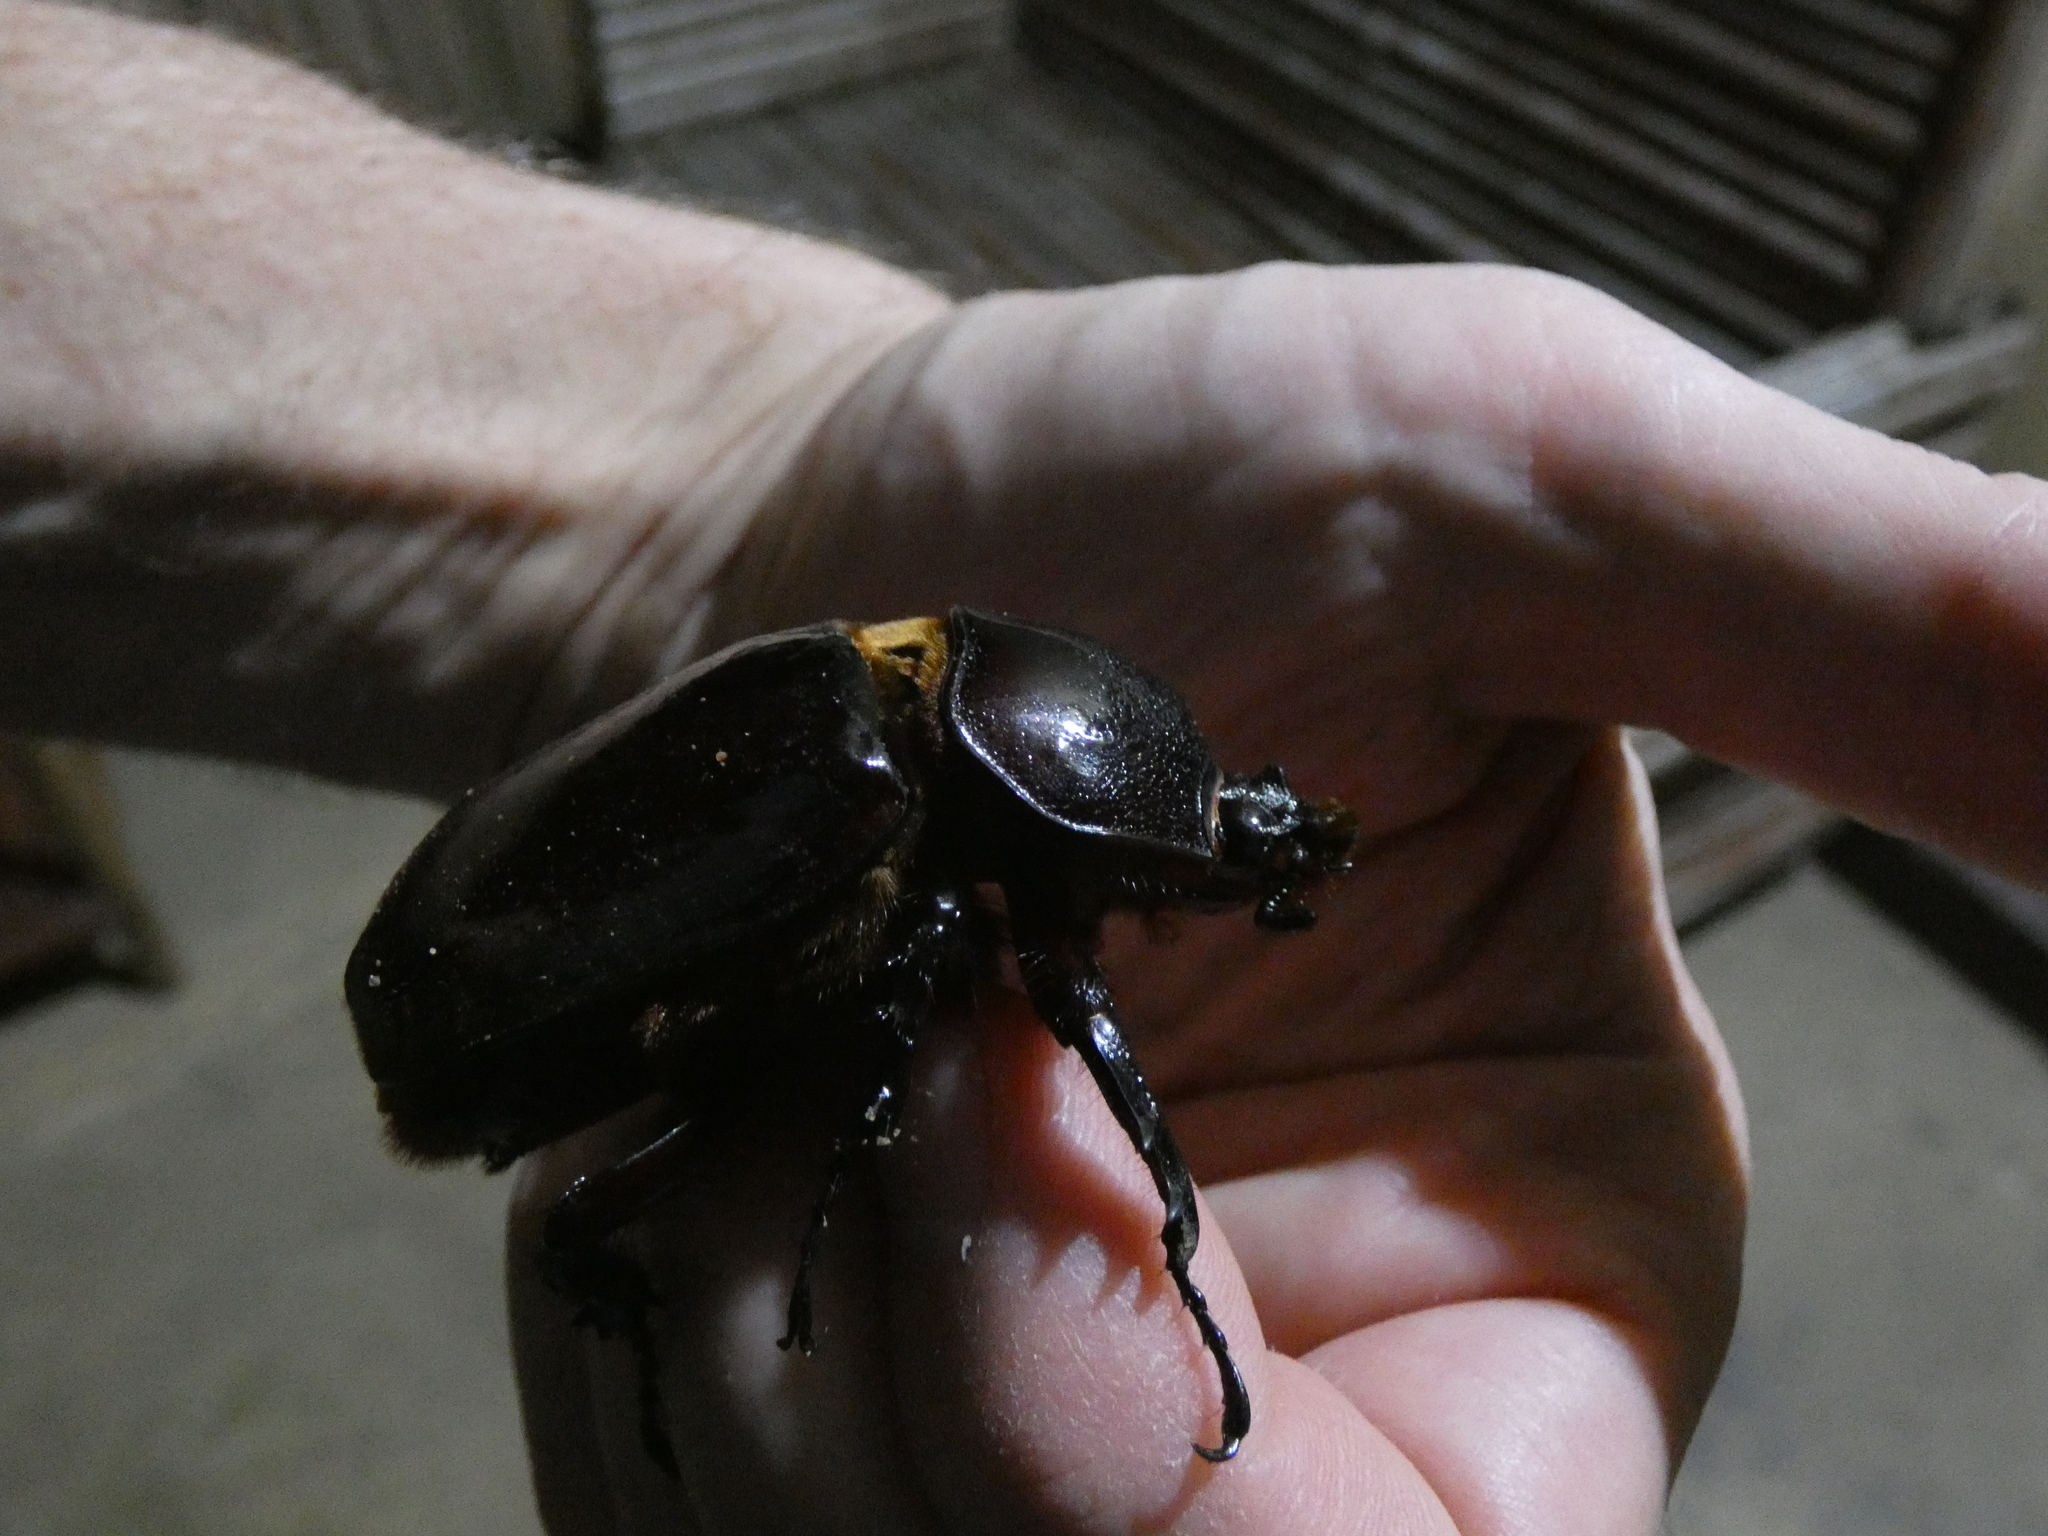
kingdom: Animalia
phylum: Arthropoda
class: Insecta
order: Coleoptera
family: Scarabaeidae
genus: Augosoma
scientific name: Augosoma centaurus
